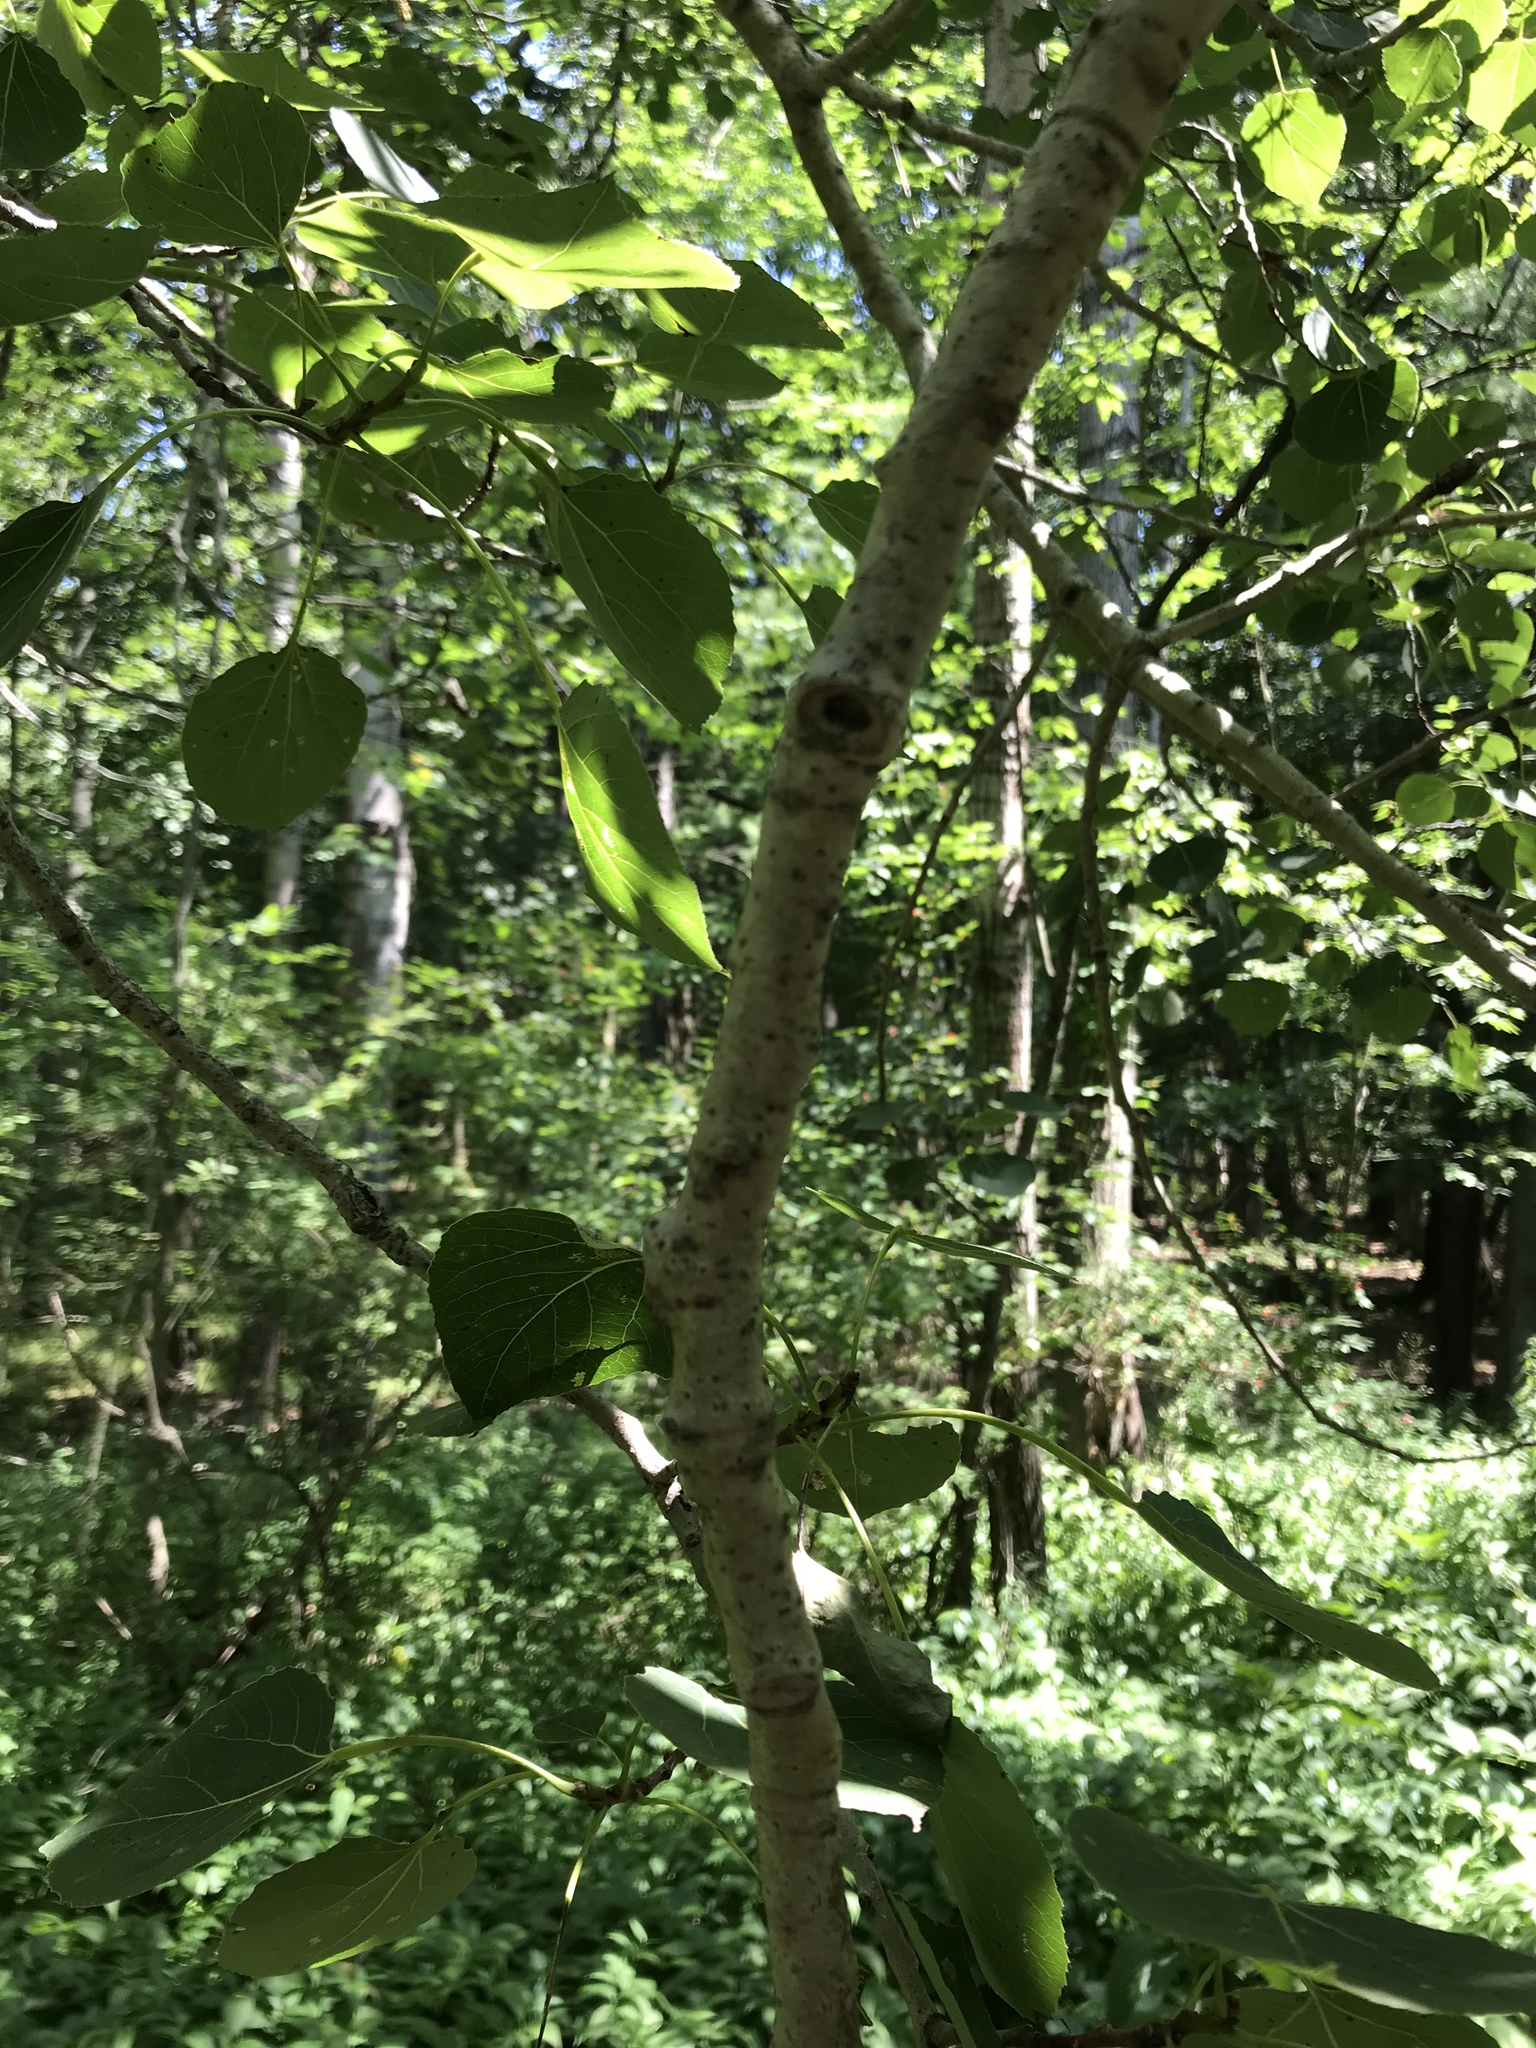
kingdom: Plantae
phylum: Tracheophyta
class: Magnoliopsida
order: Malpighiales
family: Salicaceae
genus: Populus
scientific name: Populus tremuloides
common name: Quaking aspen
